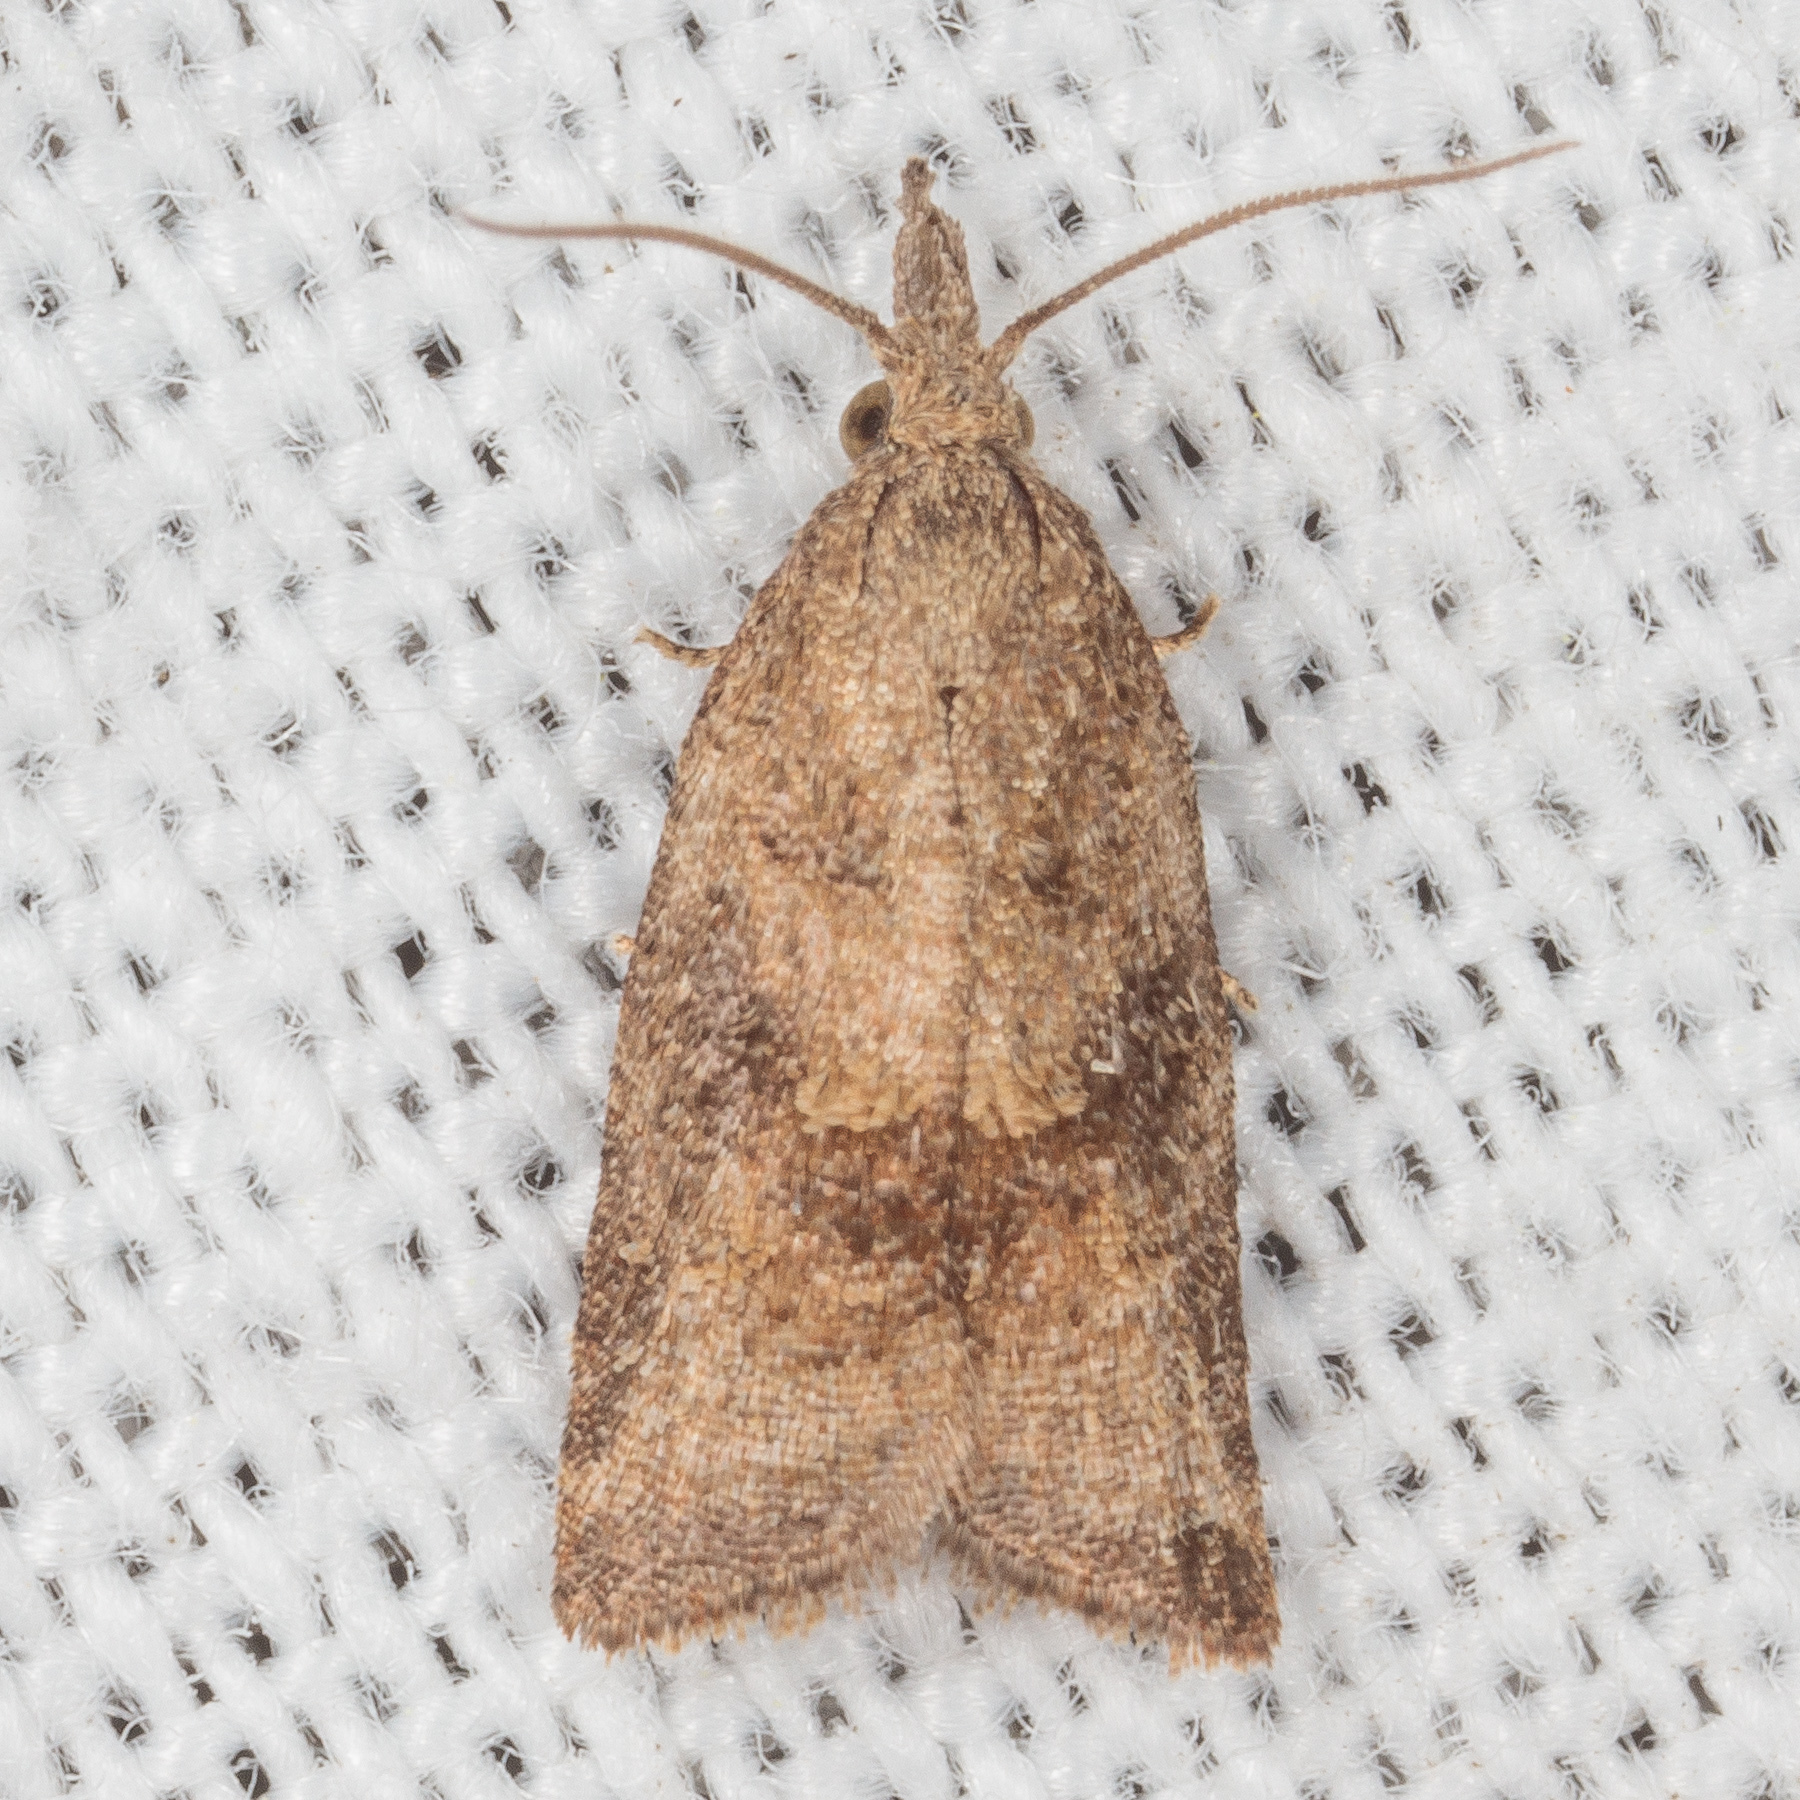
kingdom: Animalia
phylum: Arthropoda
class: Insecta
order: Lepidoptera
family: Tortricidae
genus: Platynota
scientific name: Platynota stultana
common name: Omnivorous leafroller
